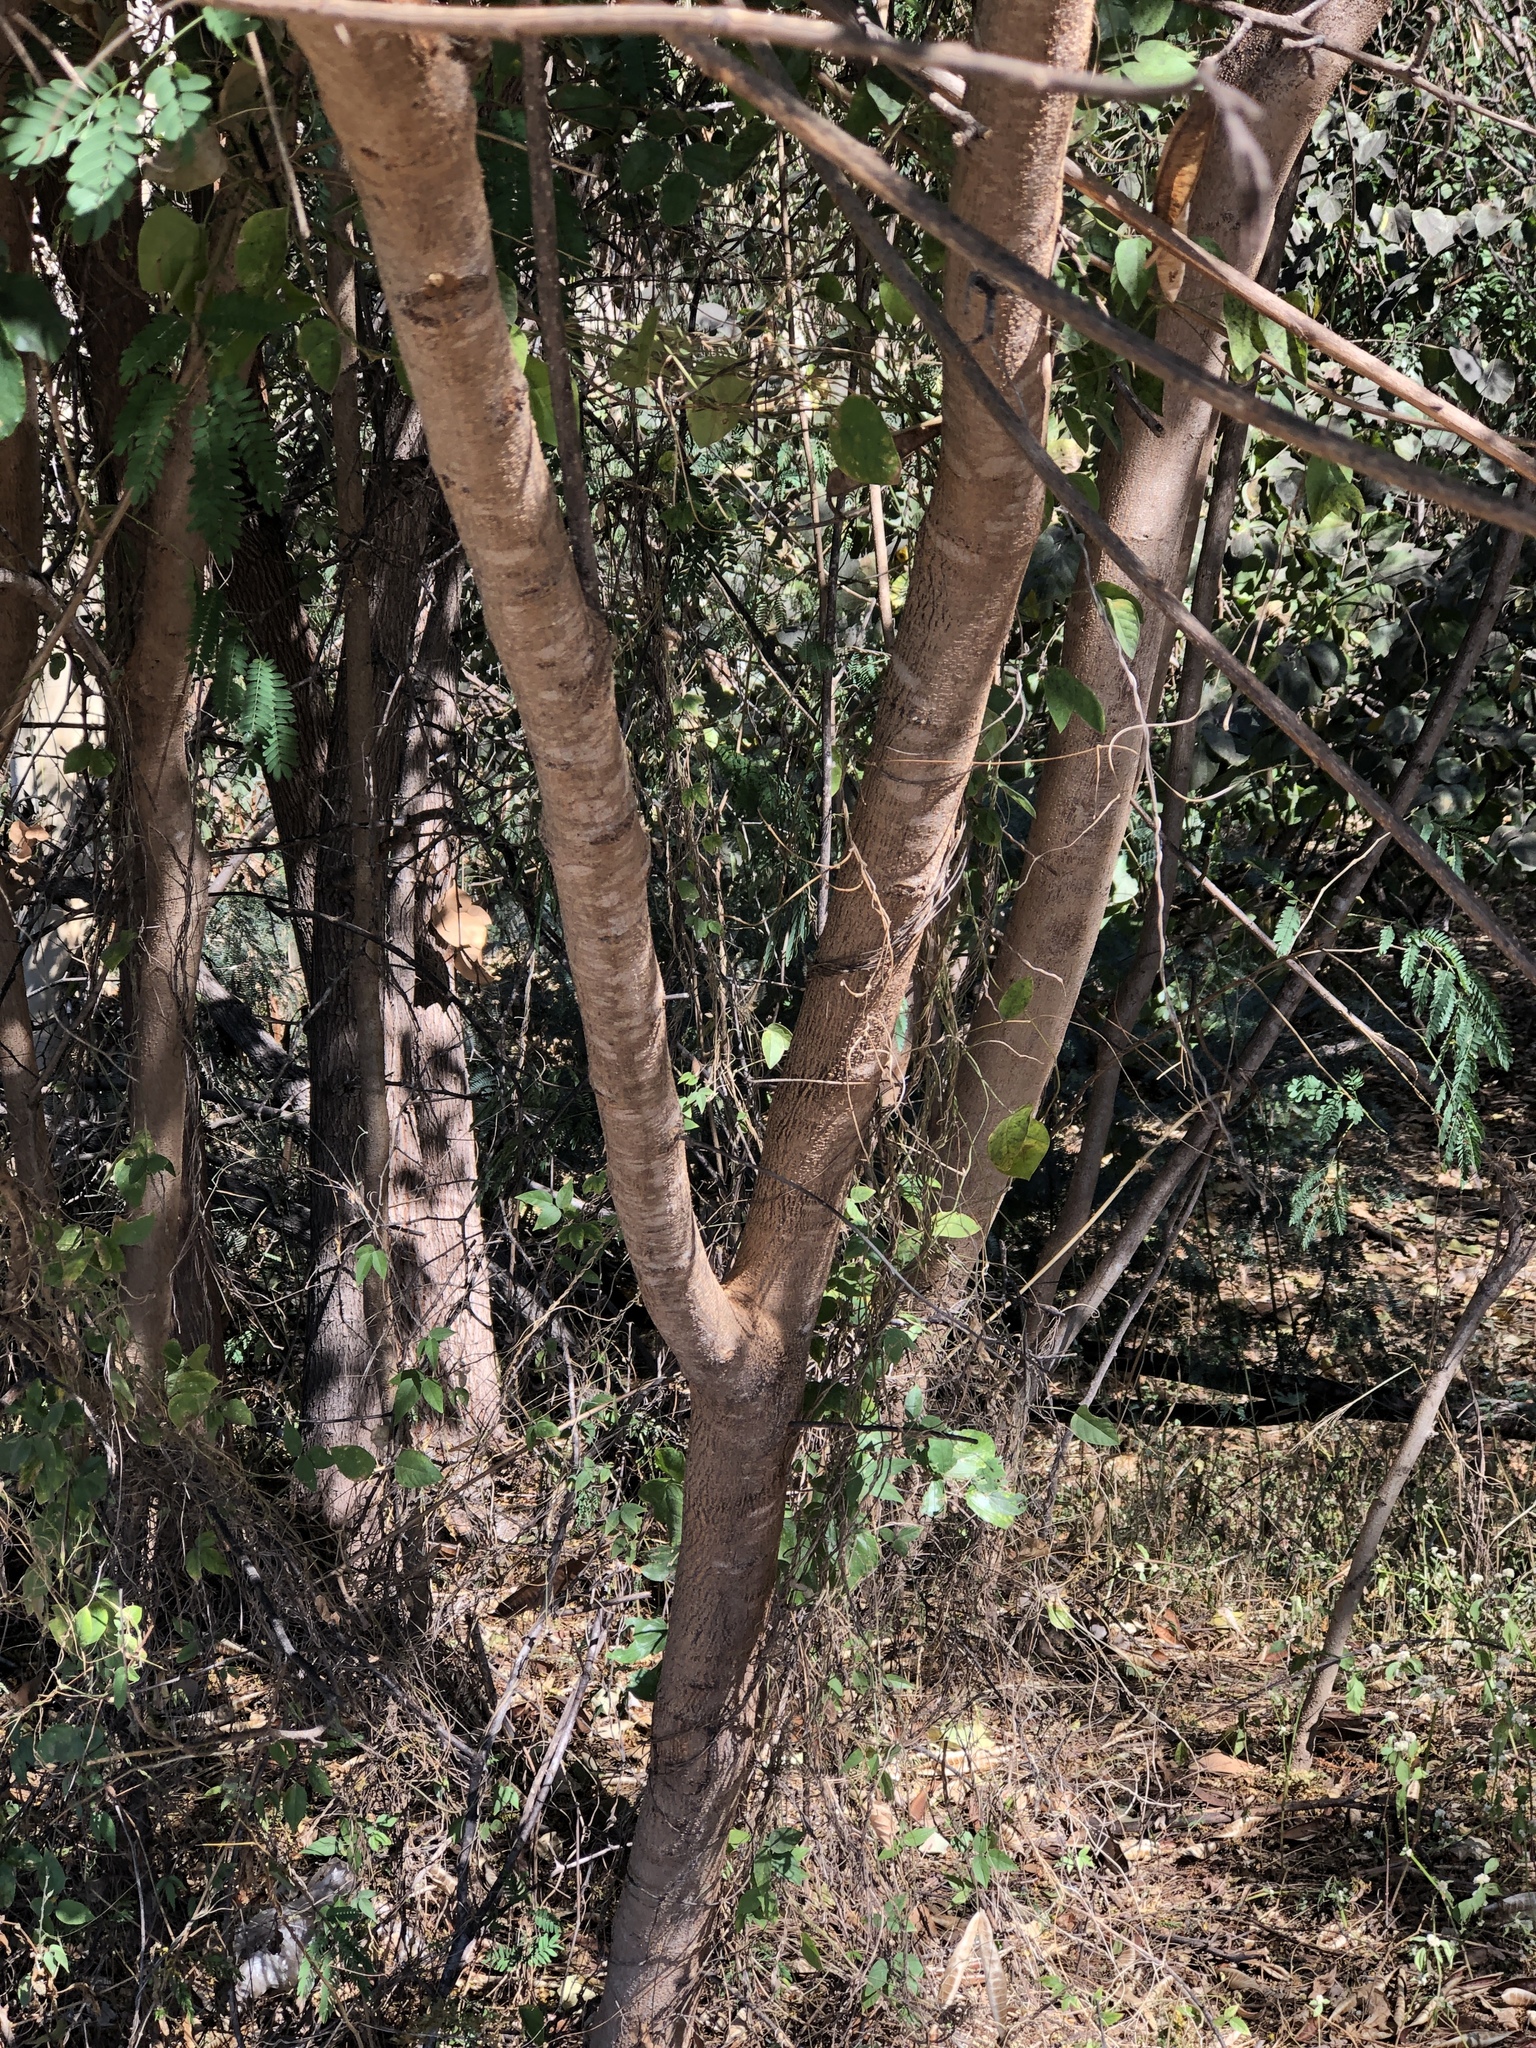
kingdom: Plantae
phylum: Tracheophyta
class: Magnoliopsida
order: Fabales
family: Fabaceae
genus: Leucaena
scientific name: Leucaena leucocephala
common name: White leadtree
